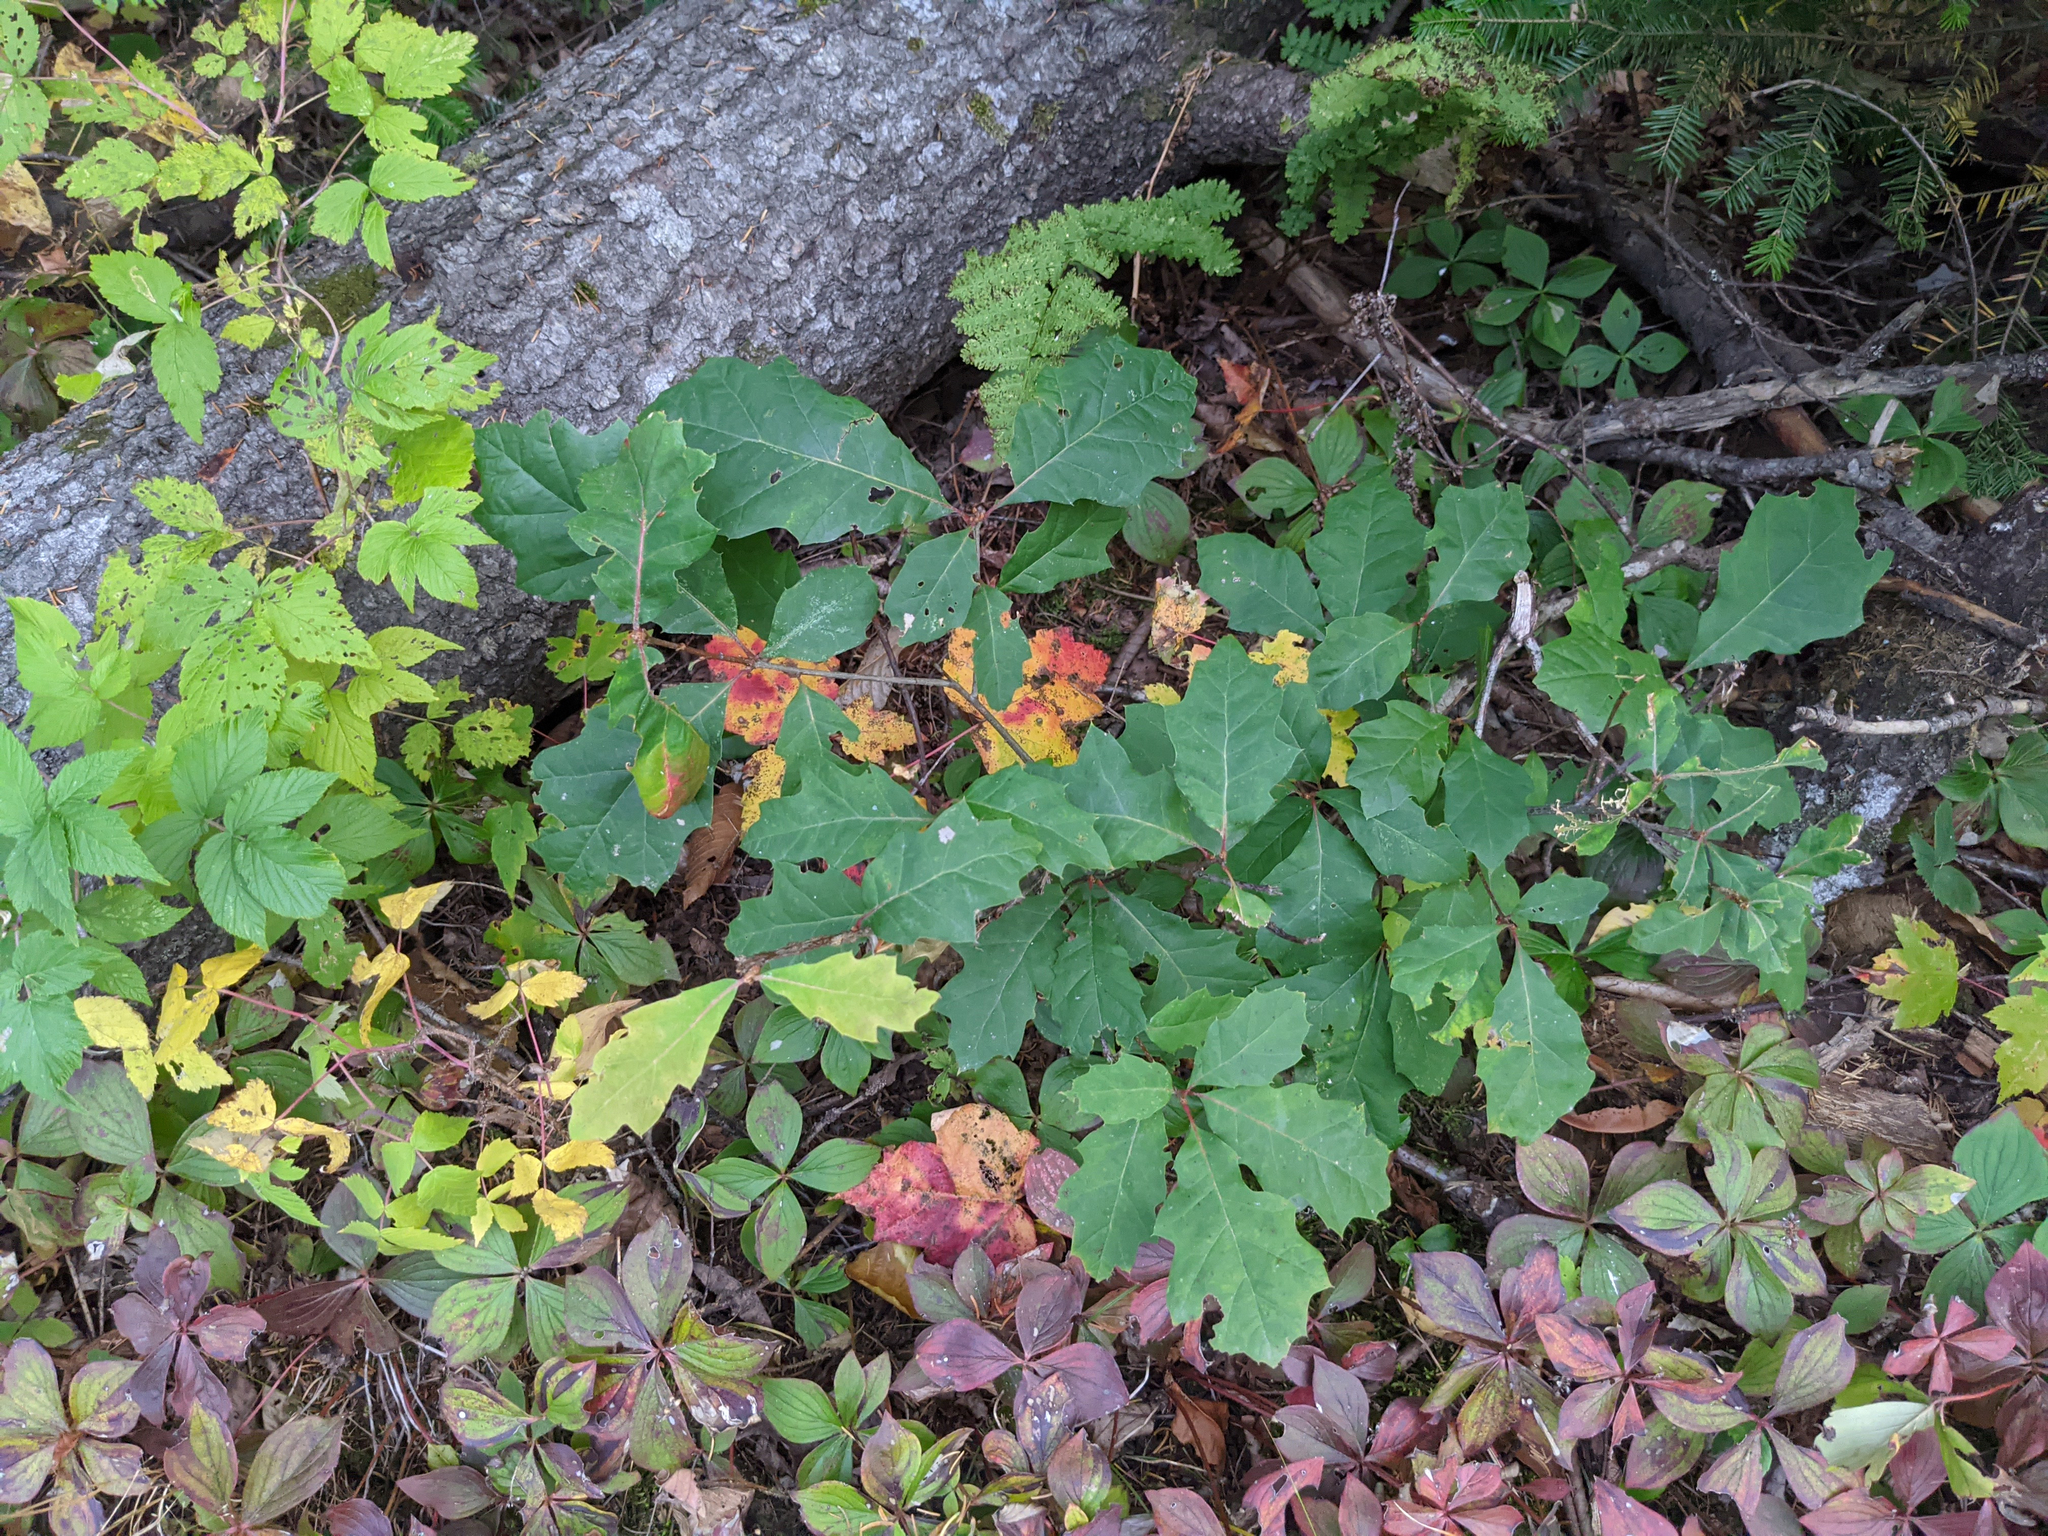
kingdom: Plantae
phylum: Tracheophyta
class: Magnoliopsida
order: Cornales
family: Cornaceae
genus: Cornus
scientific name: Cornus canadensis
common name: Creeping dogwood
